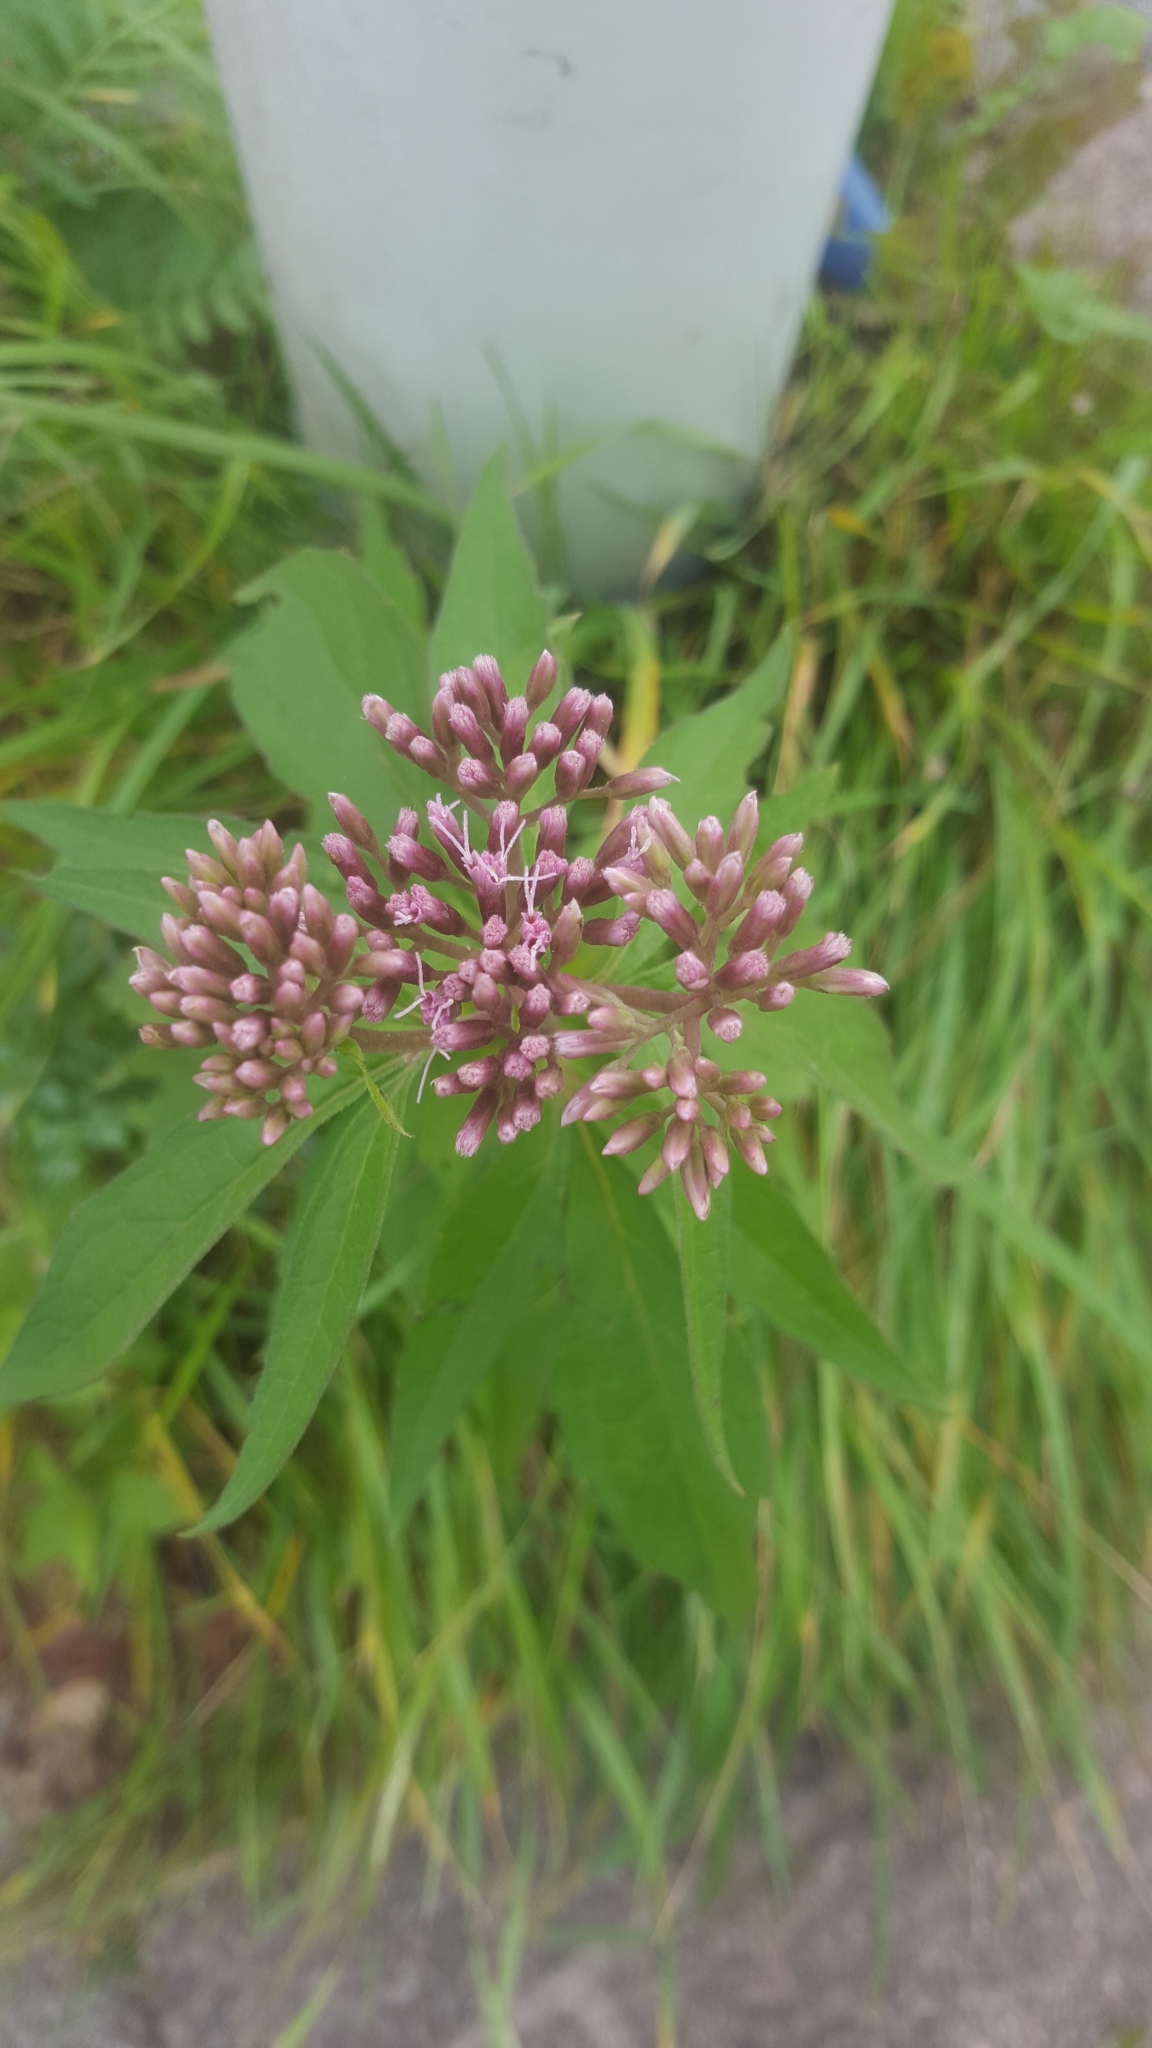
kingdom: Plantae
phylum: Tracheophyta
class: Magnoliopsida
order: Asterales
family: Asteraceae
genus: Eupatorium
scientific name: Eupatorium cannabinum
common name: Hemp-agrimony
